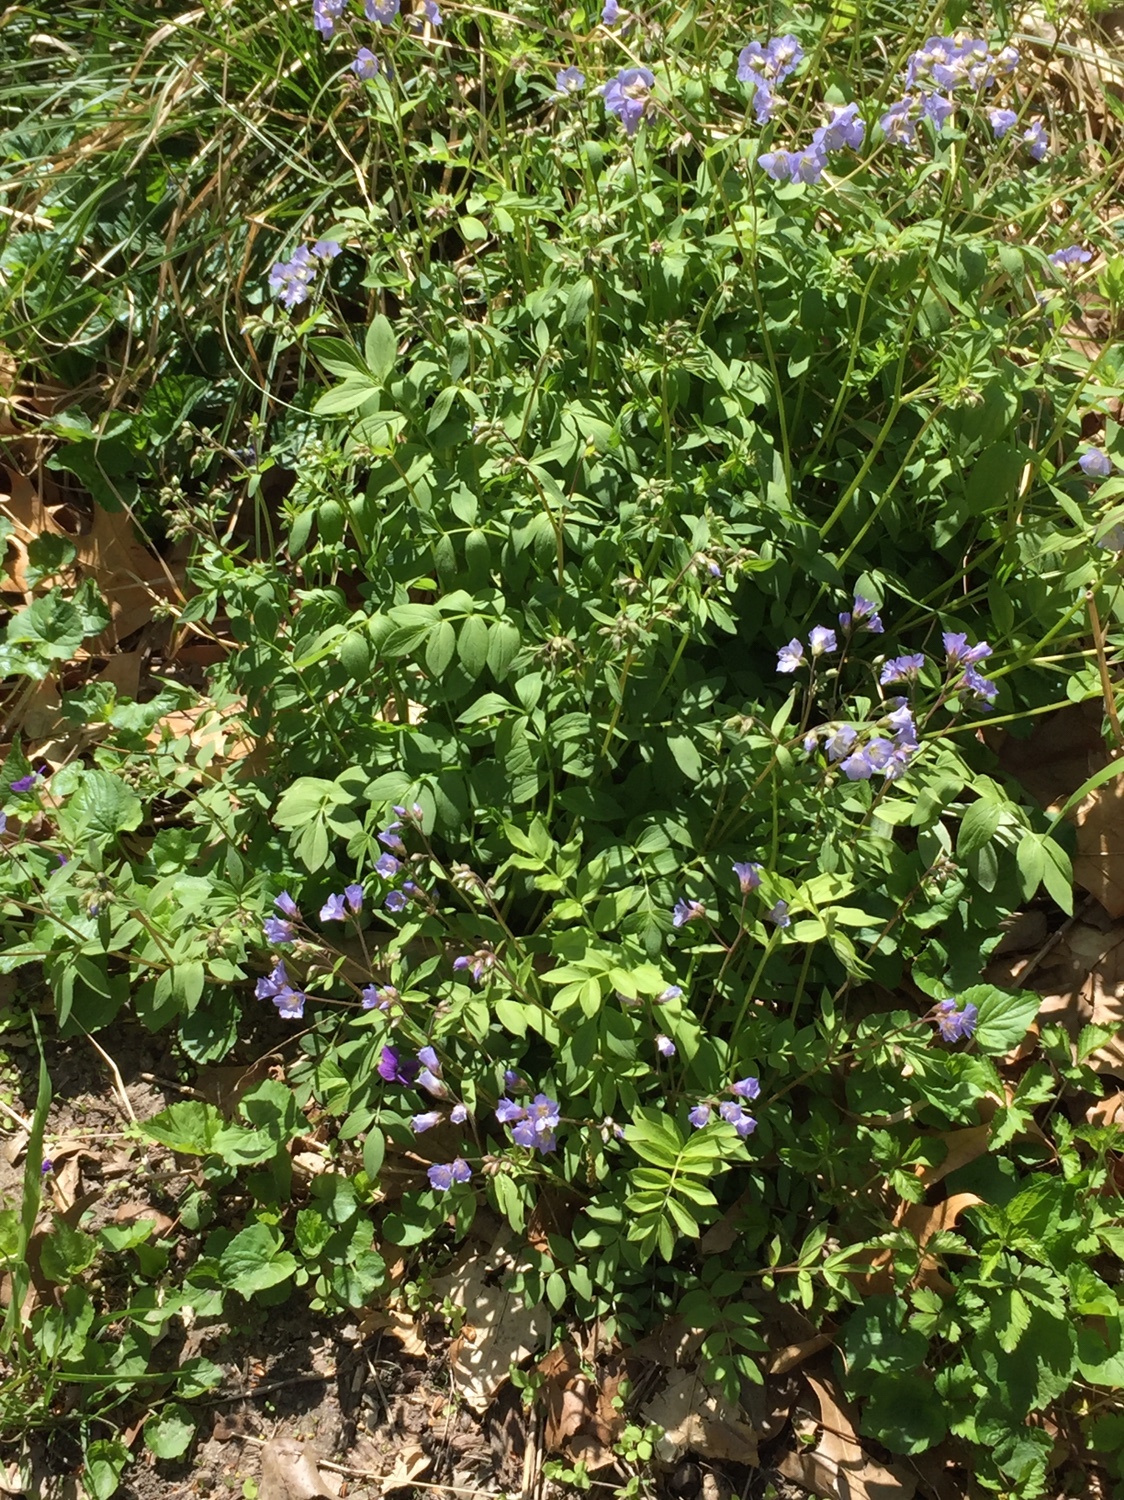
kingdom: Plantae
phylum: Tracheophyta
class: Magnoliopsida
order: Ericales
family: Polemoniaceae
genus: Polemonium
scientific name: Polemonium reptans
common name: Creeping jacob's-ladder
